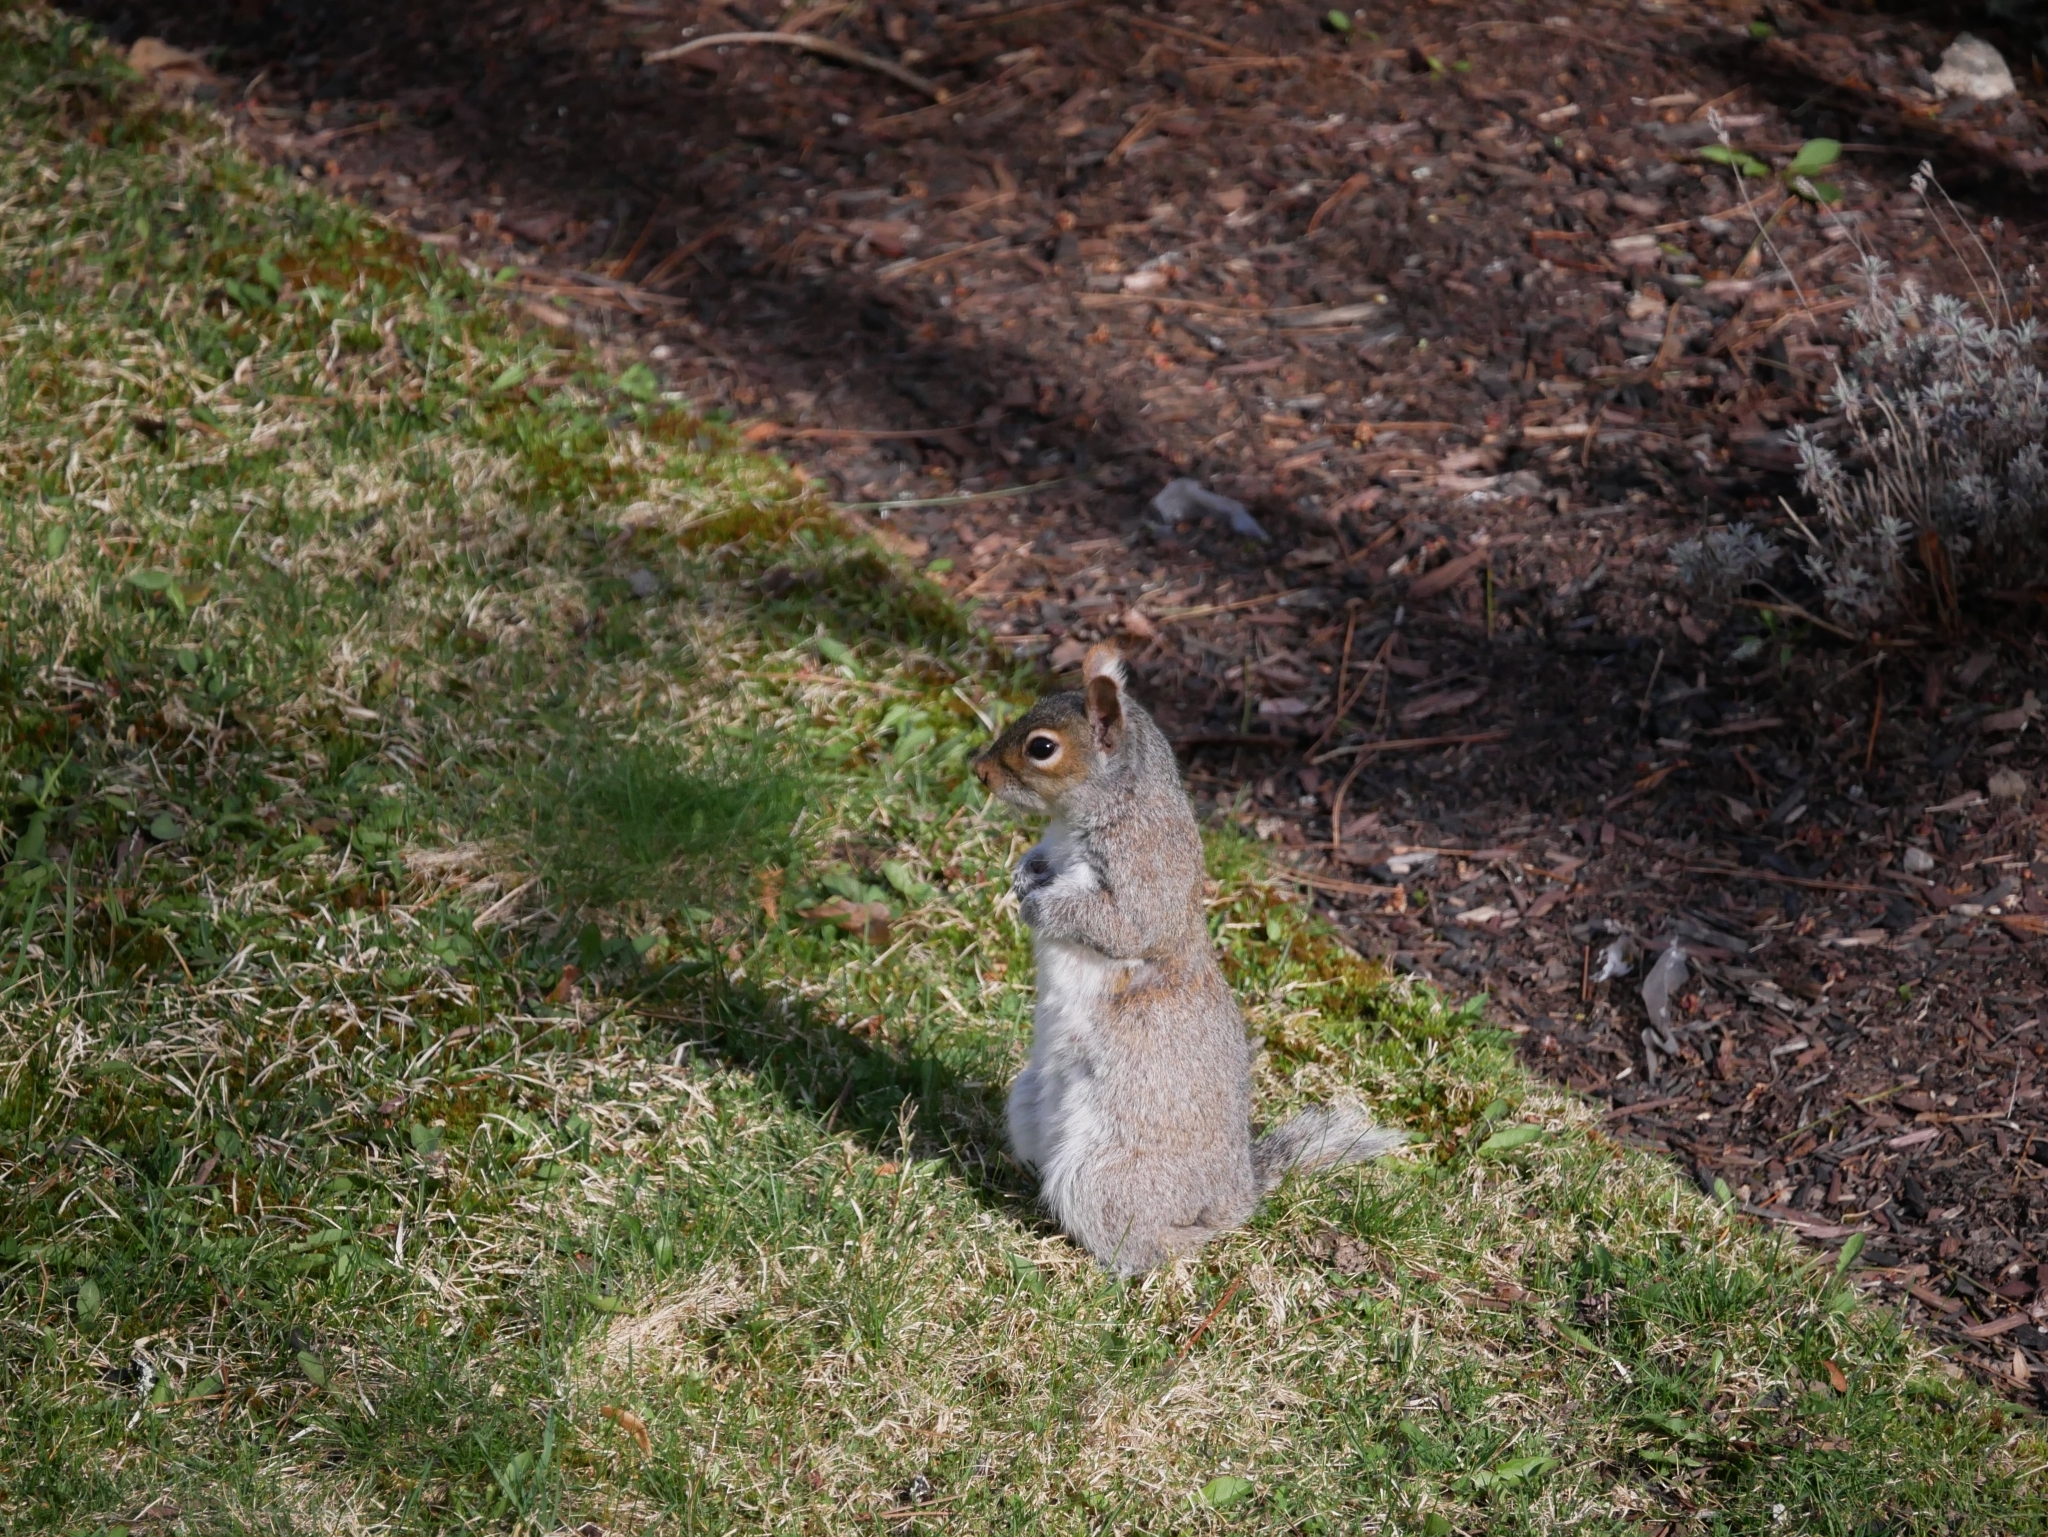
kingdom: Animalia
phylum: Chordata
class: Mammalia
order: Rodentia
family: Sciuridae
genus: Sciurus
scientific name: Sciurus carolinensis
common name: Eastern gray squirrel
